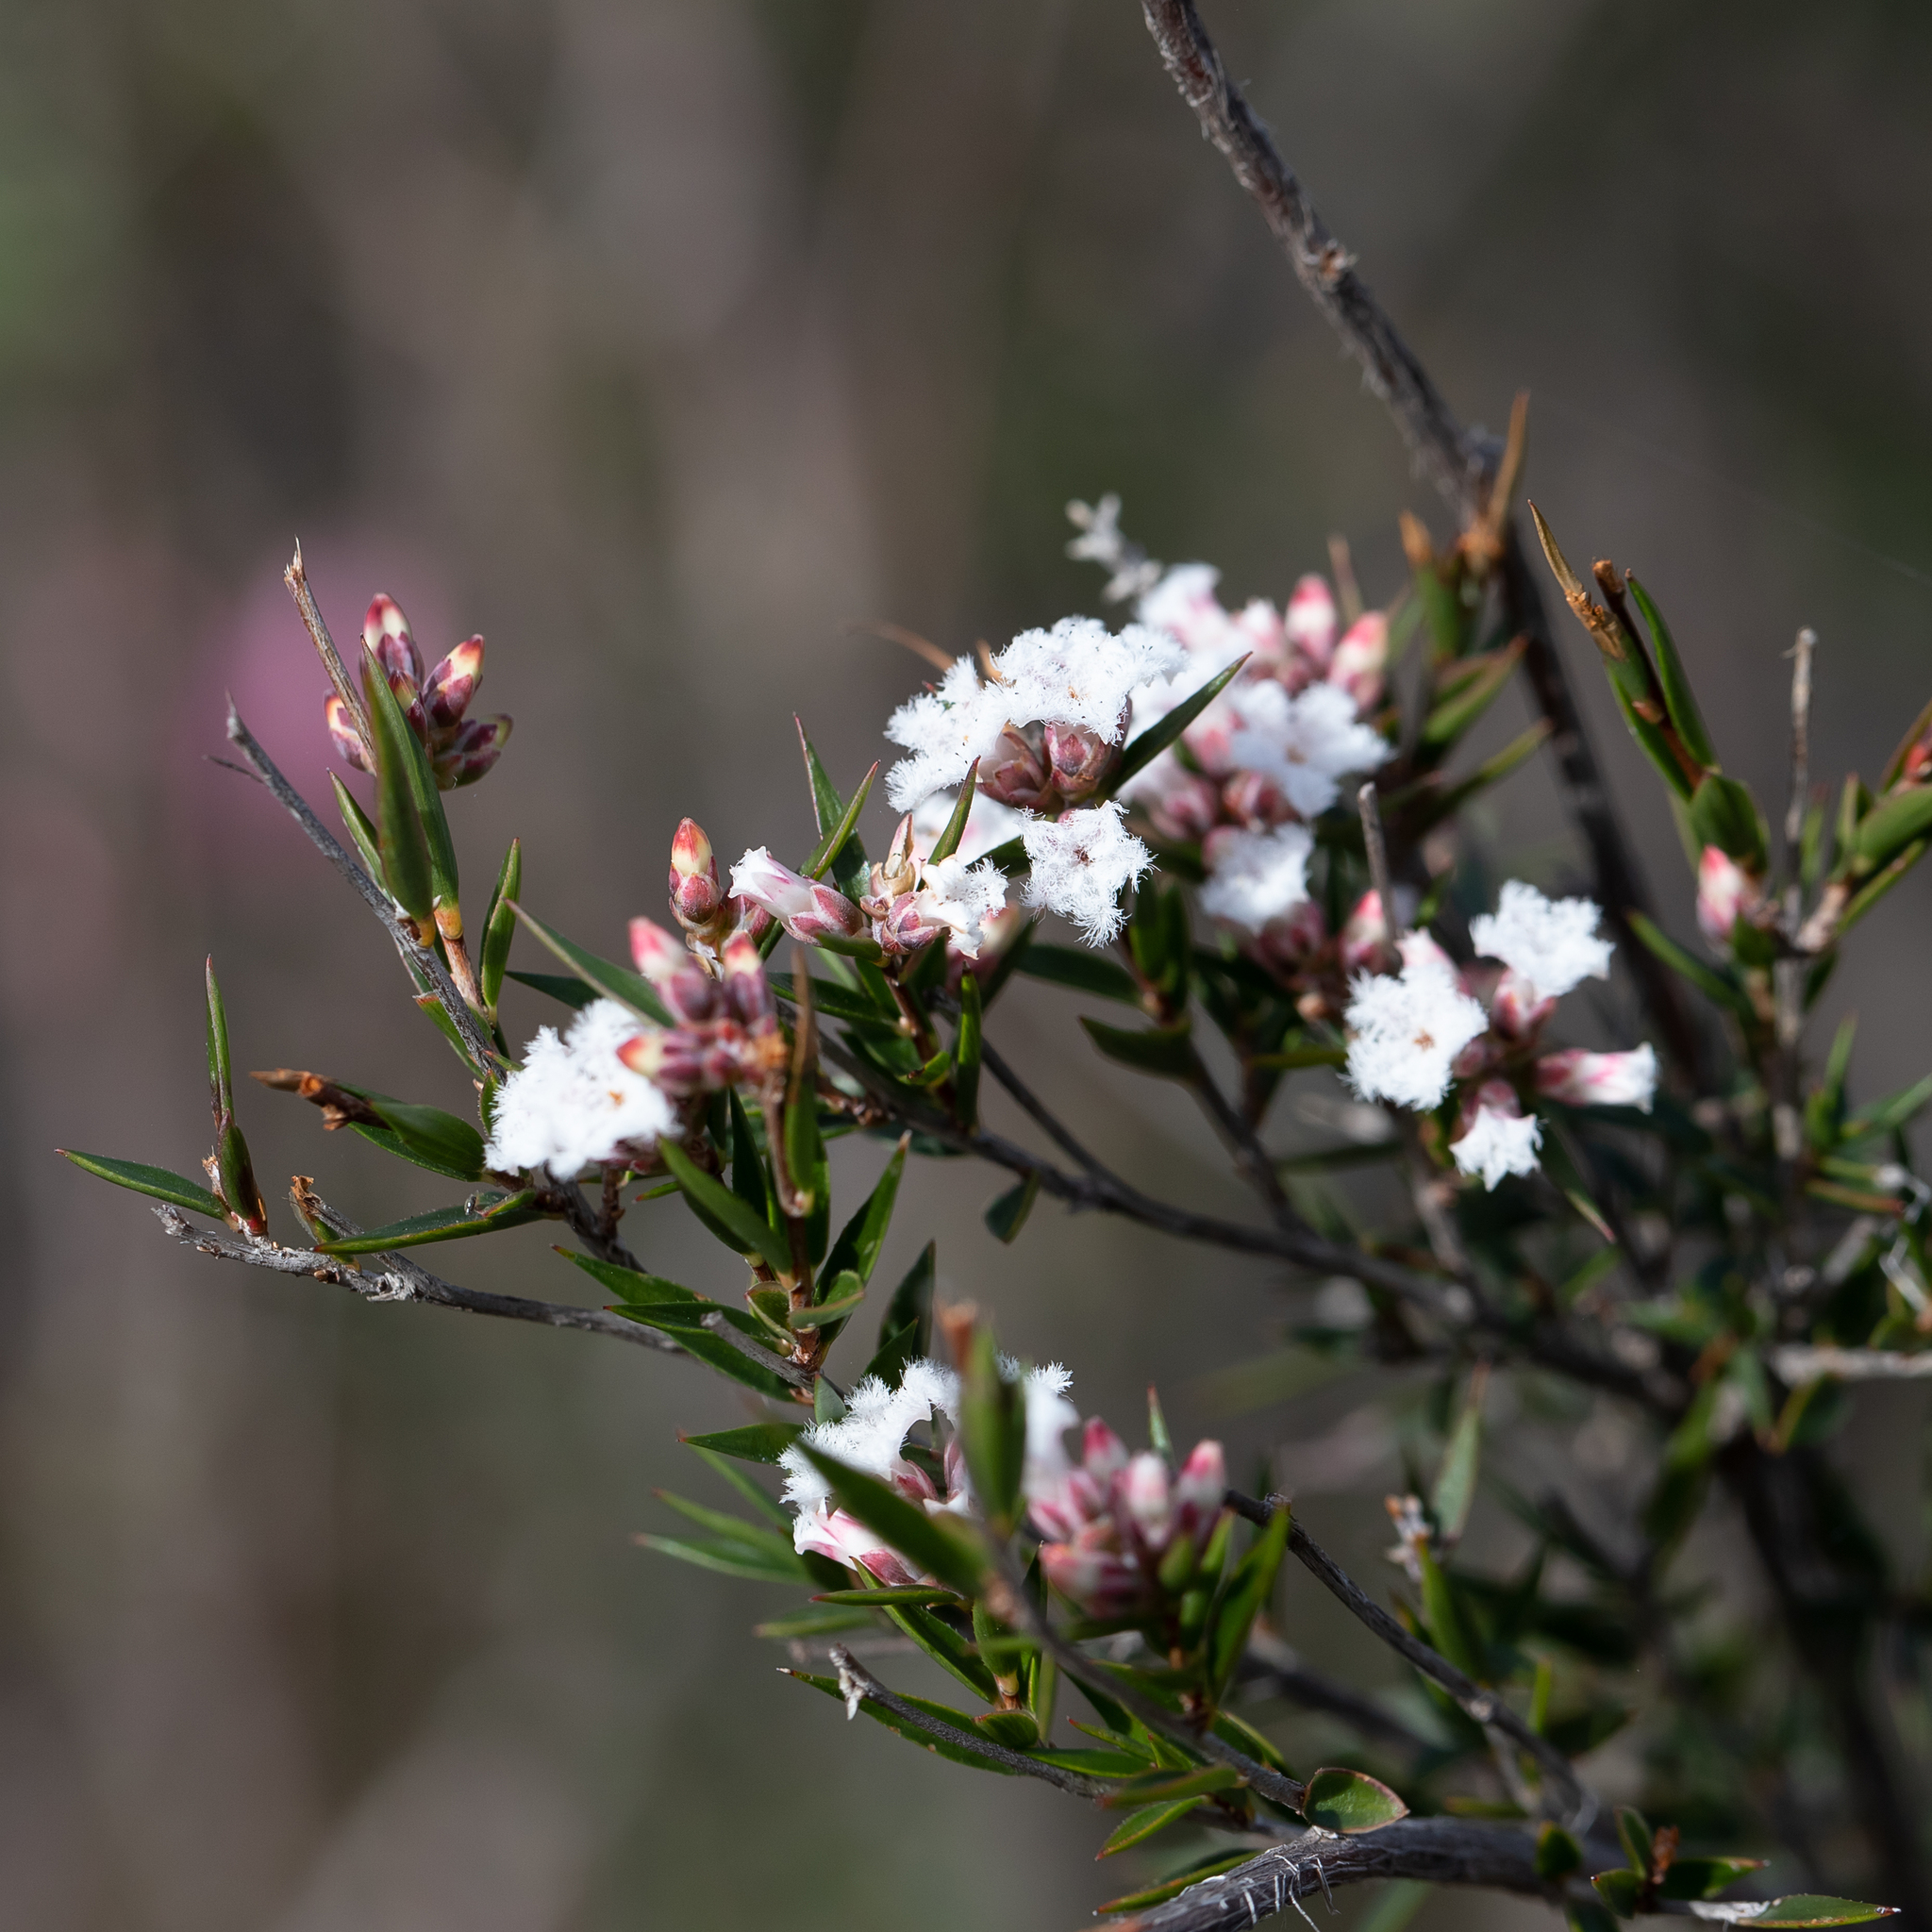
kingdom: Plantae
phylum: Tracheophyta
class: Magnoliopsida
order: Ericales
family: Ericaceae
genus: Leucopogon
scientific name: Leucopogon virgatus
